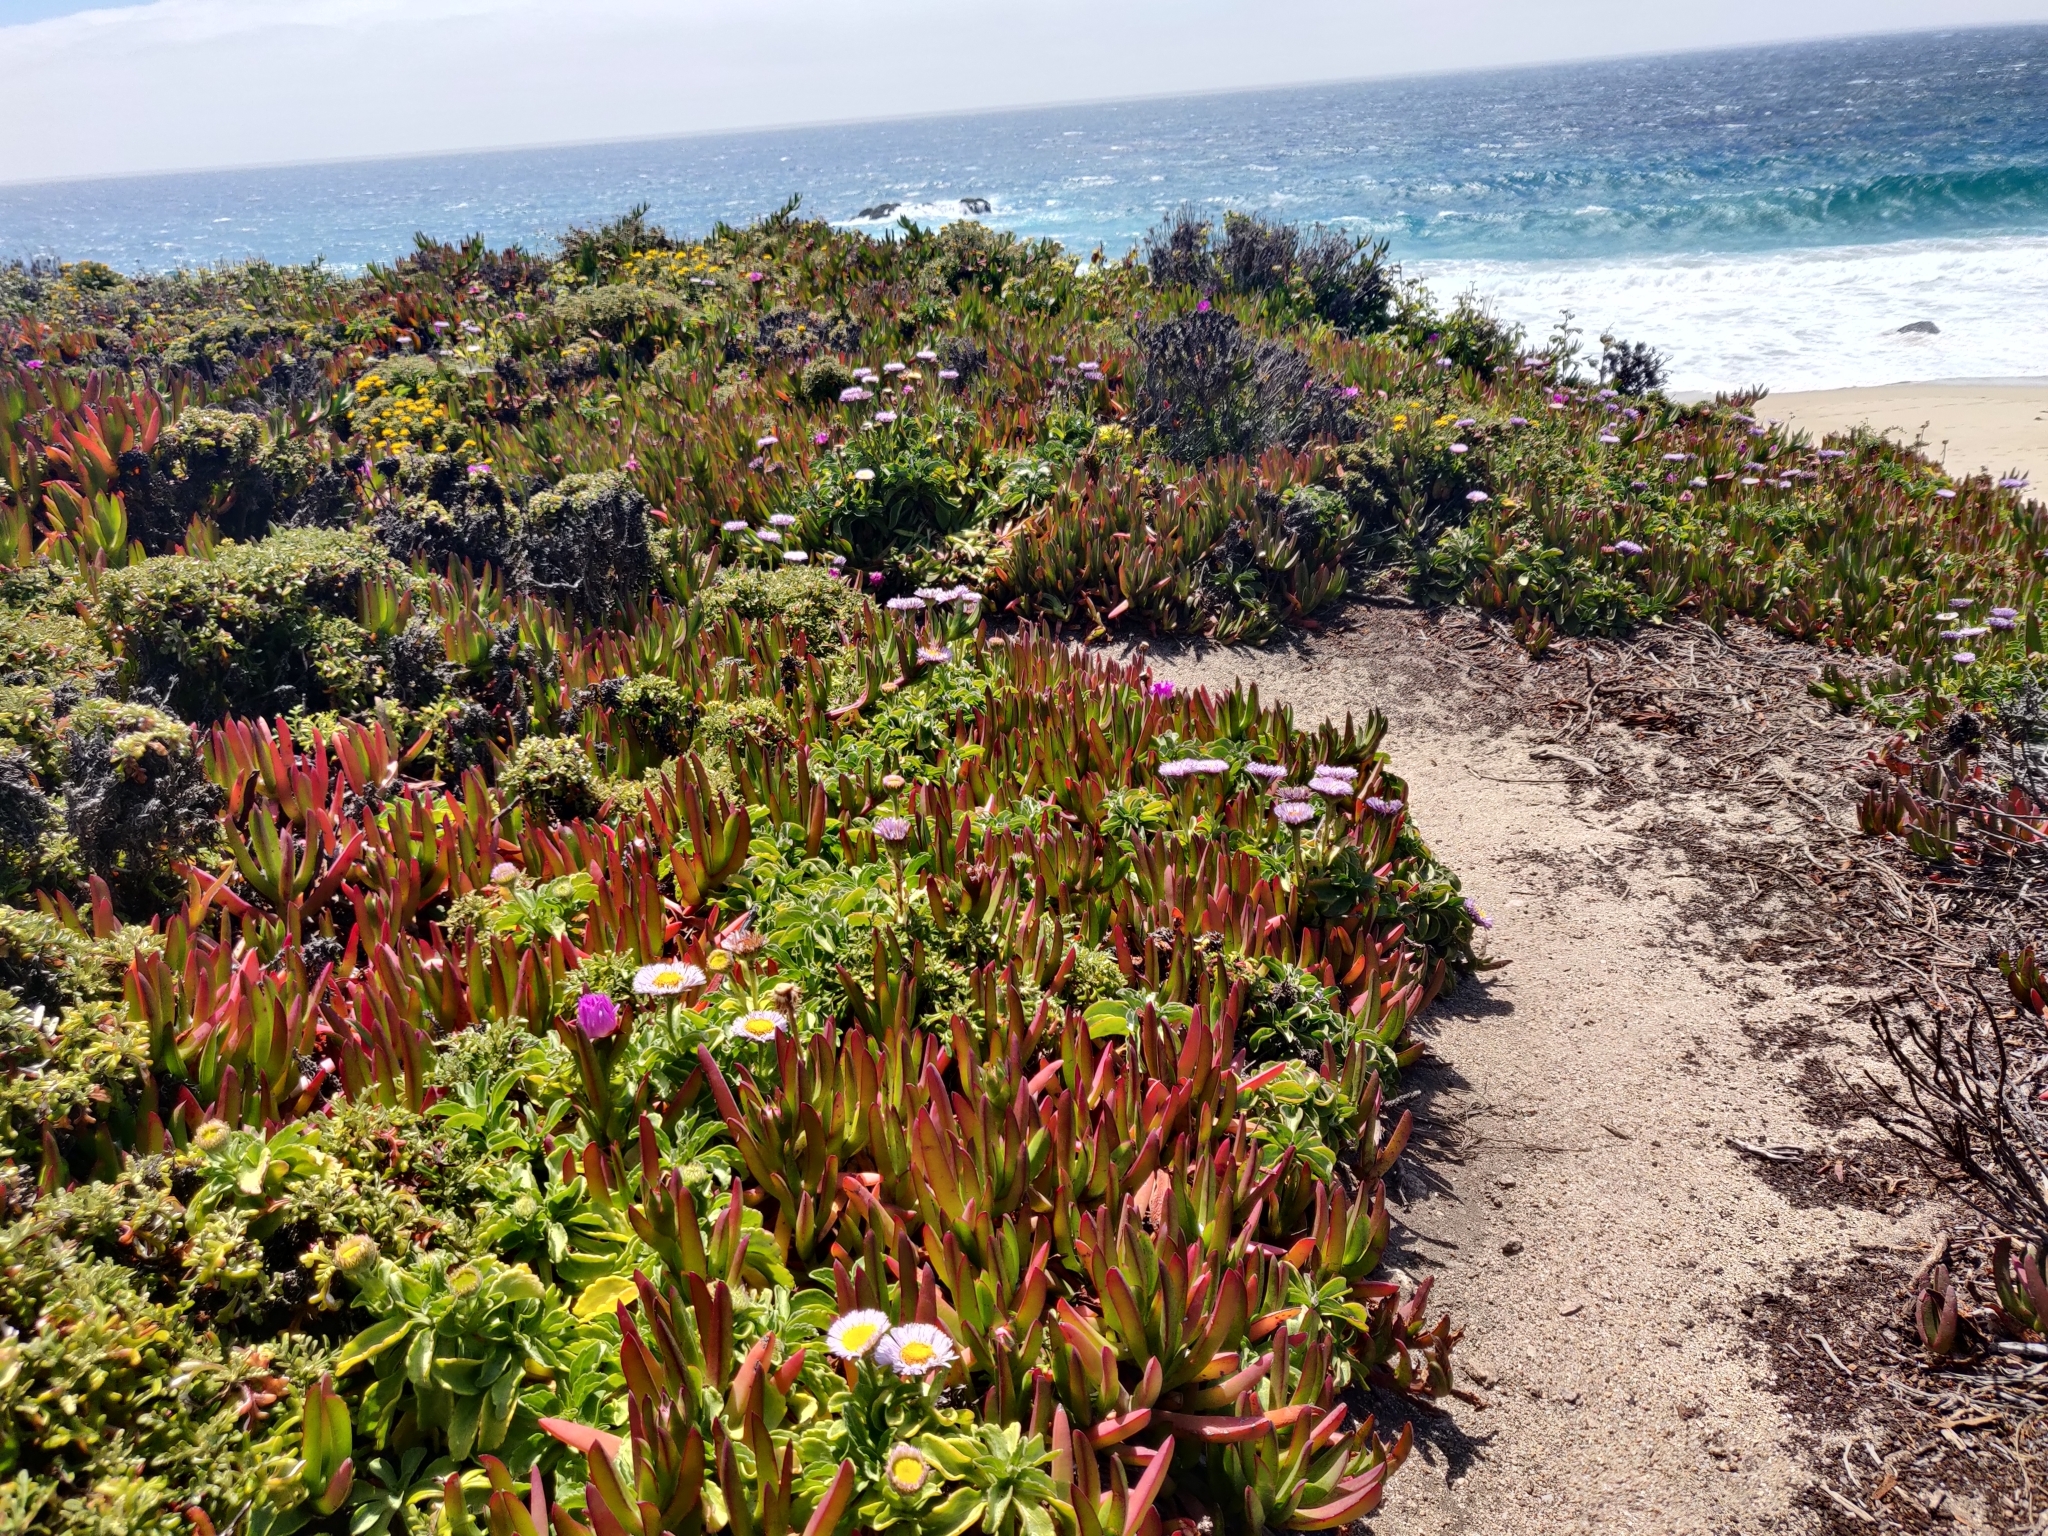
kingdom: Plantae
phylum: Tracheophyta
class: Magnoliopsida
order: Asterales
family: Asteraceae
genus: Erigeron
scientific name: Erigeron glaucus
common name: Seaside daisy
